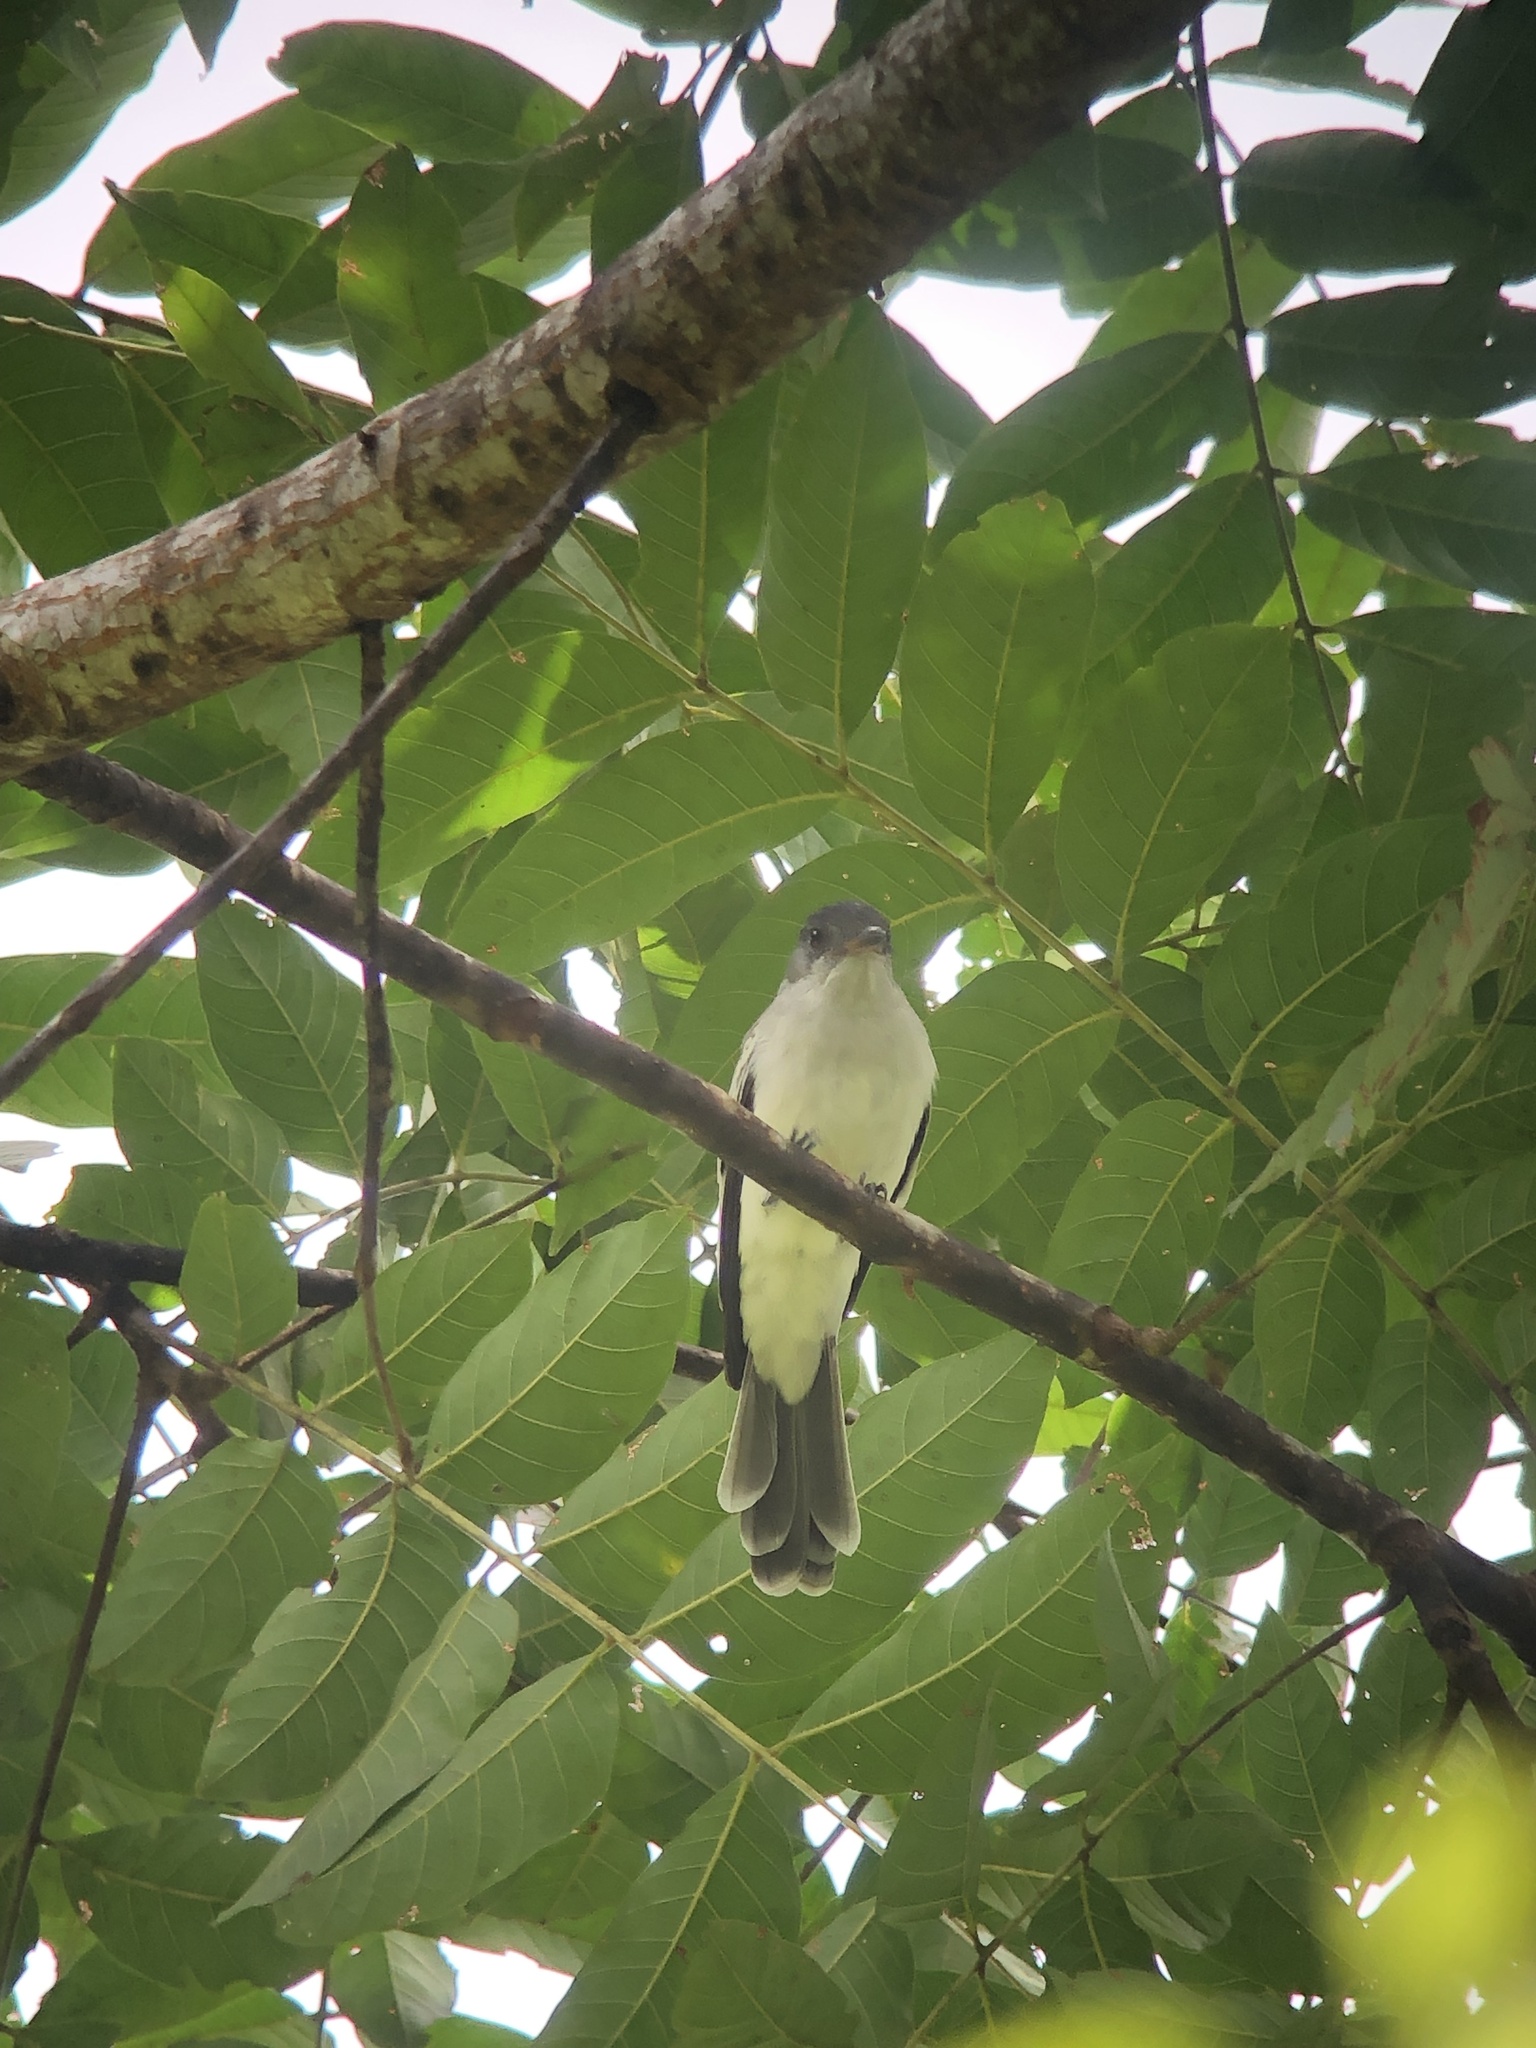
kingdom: Animalia
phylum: Chordata
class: Aves
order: Passeriformes
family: Tyrannidae
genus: Sirystes
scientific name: Sirystes sibilator
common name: Sirystes
